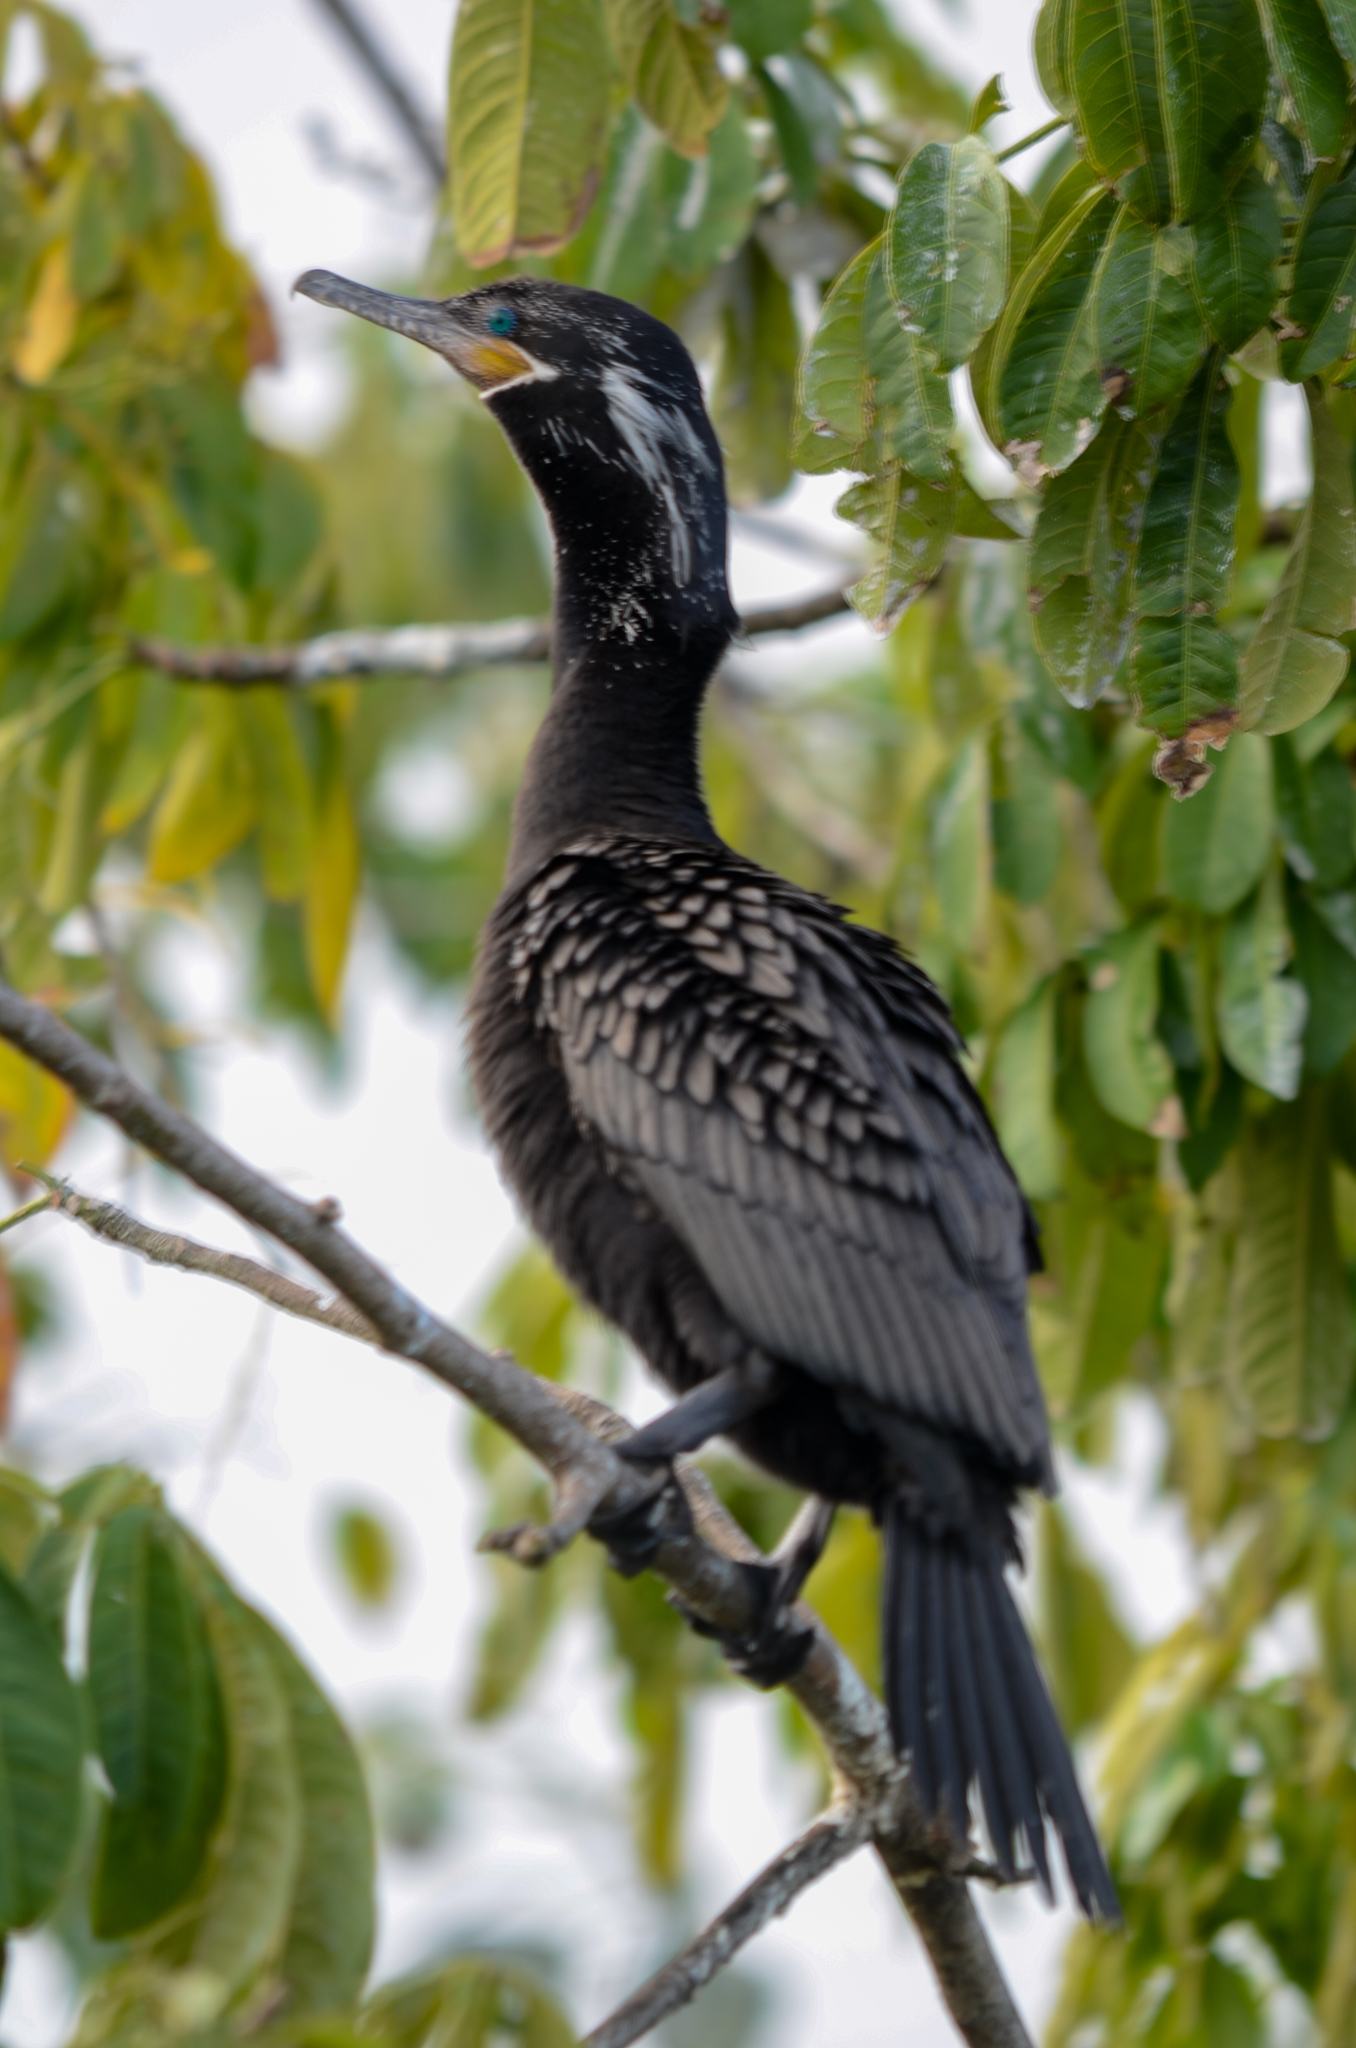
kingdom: Animalia
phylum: Chordata
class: Aves
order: Suliformes
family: Phalacrocoracidae
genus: Phalacrocorax
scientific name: Phalacrocorax brasilianus
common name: Neotropic cormorant
